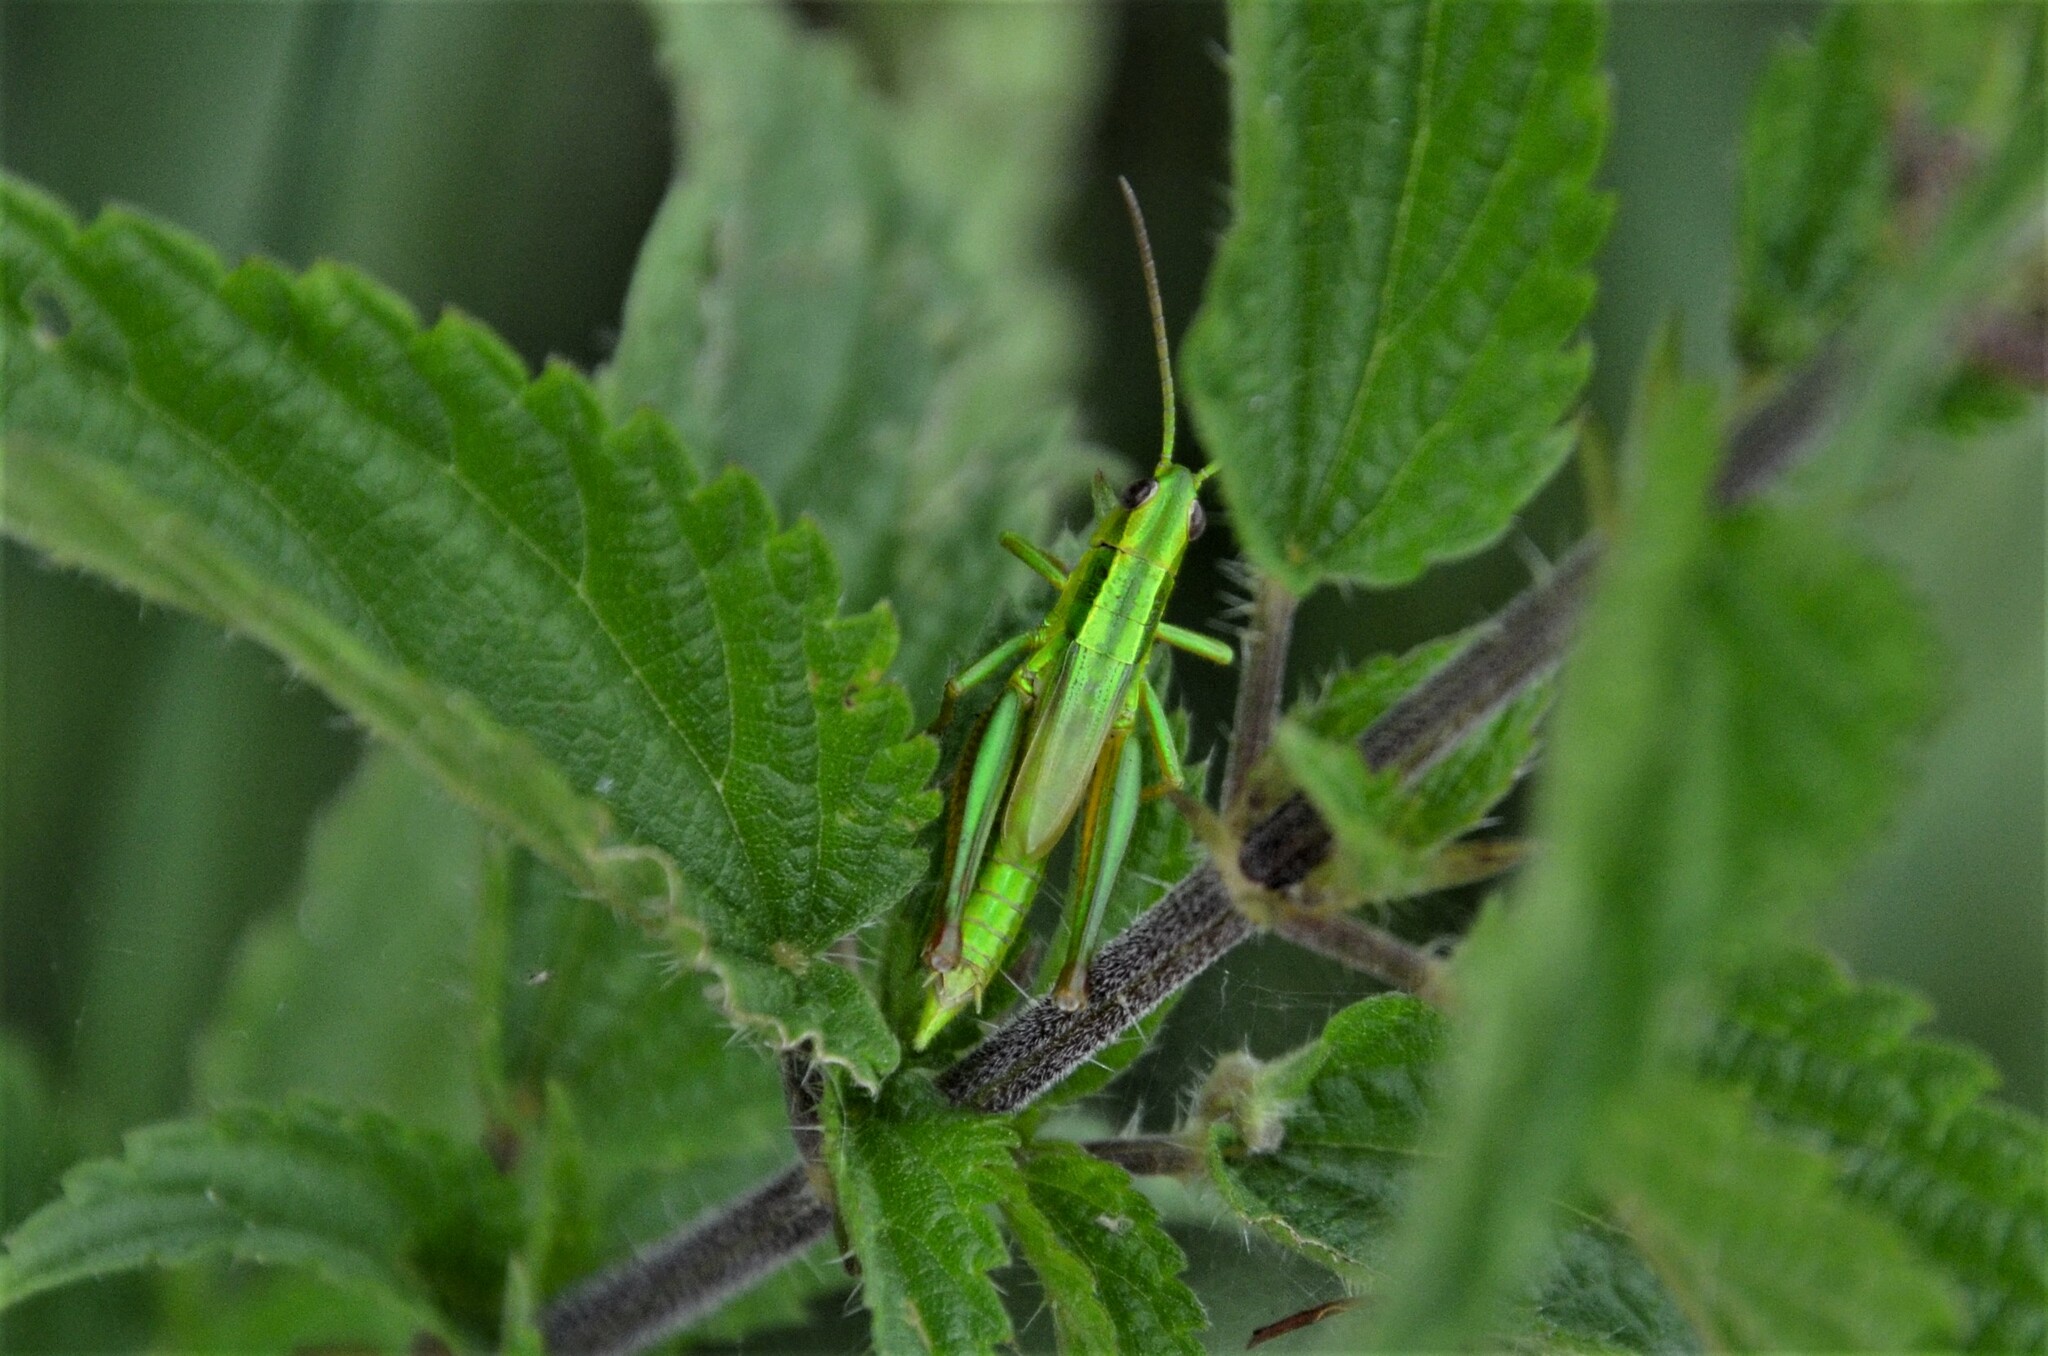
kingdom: Animalia
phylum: Arthropoda
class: Insecta
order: Orthoptera
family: Acrididae
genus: Euthystira
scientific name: Euthystira brachyptera
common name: Small gold grasshopper
